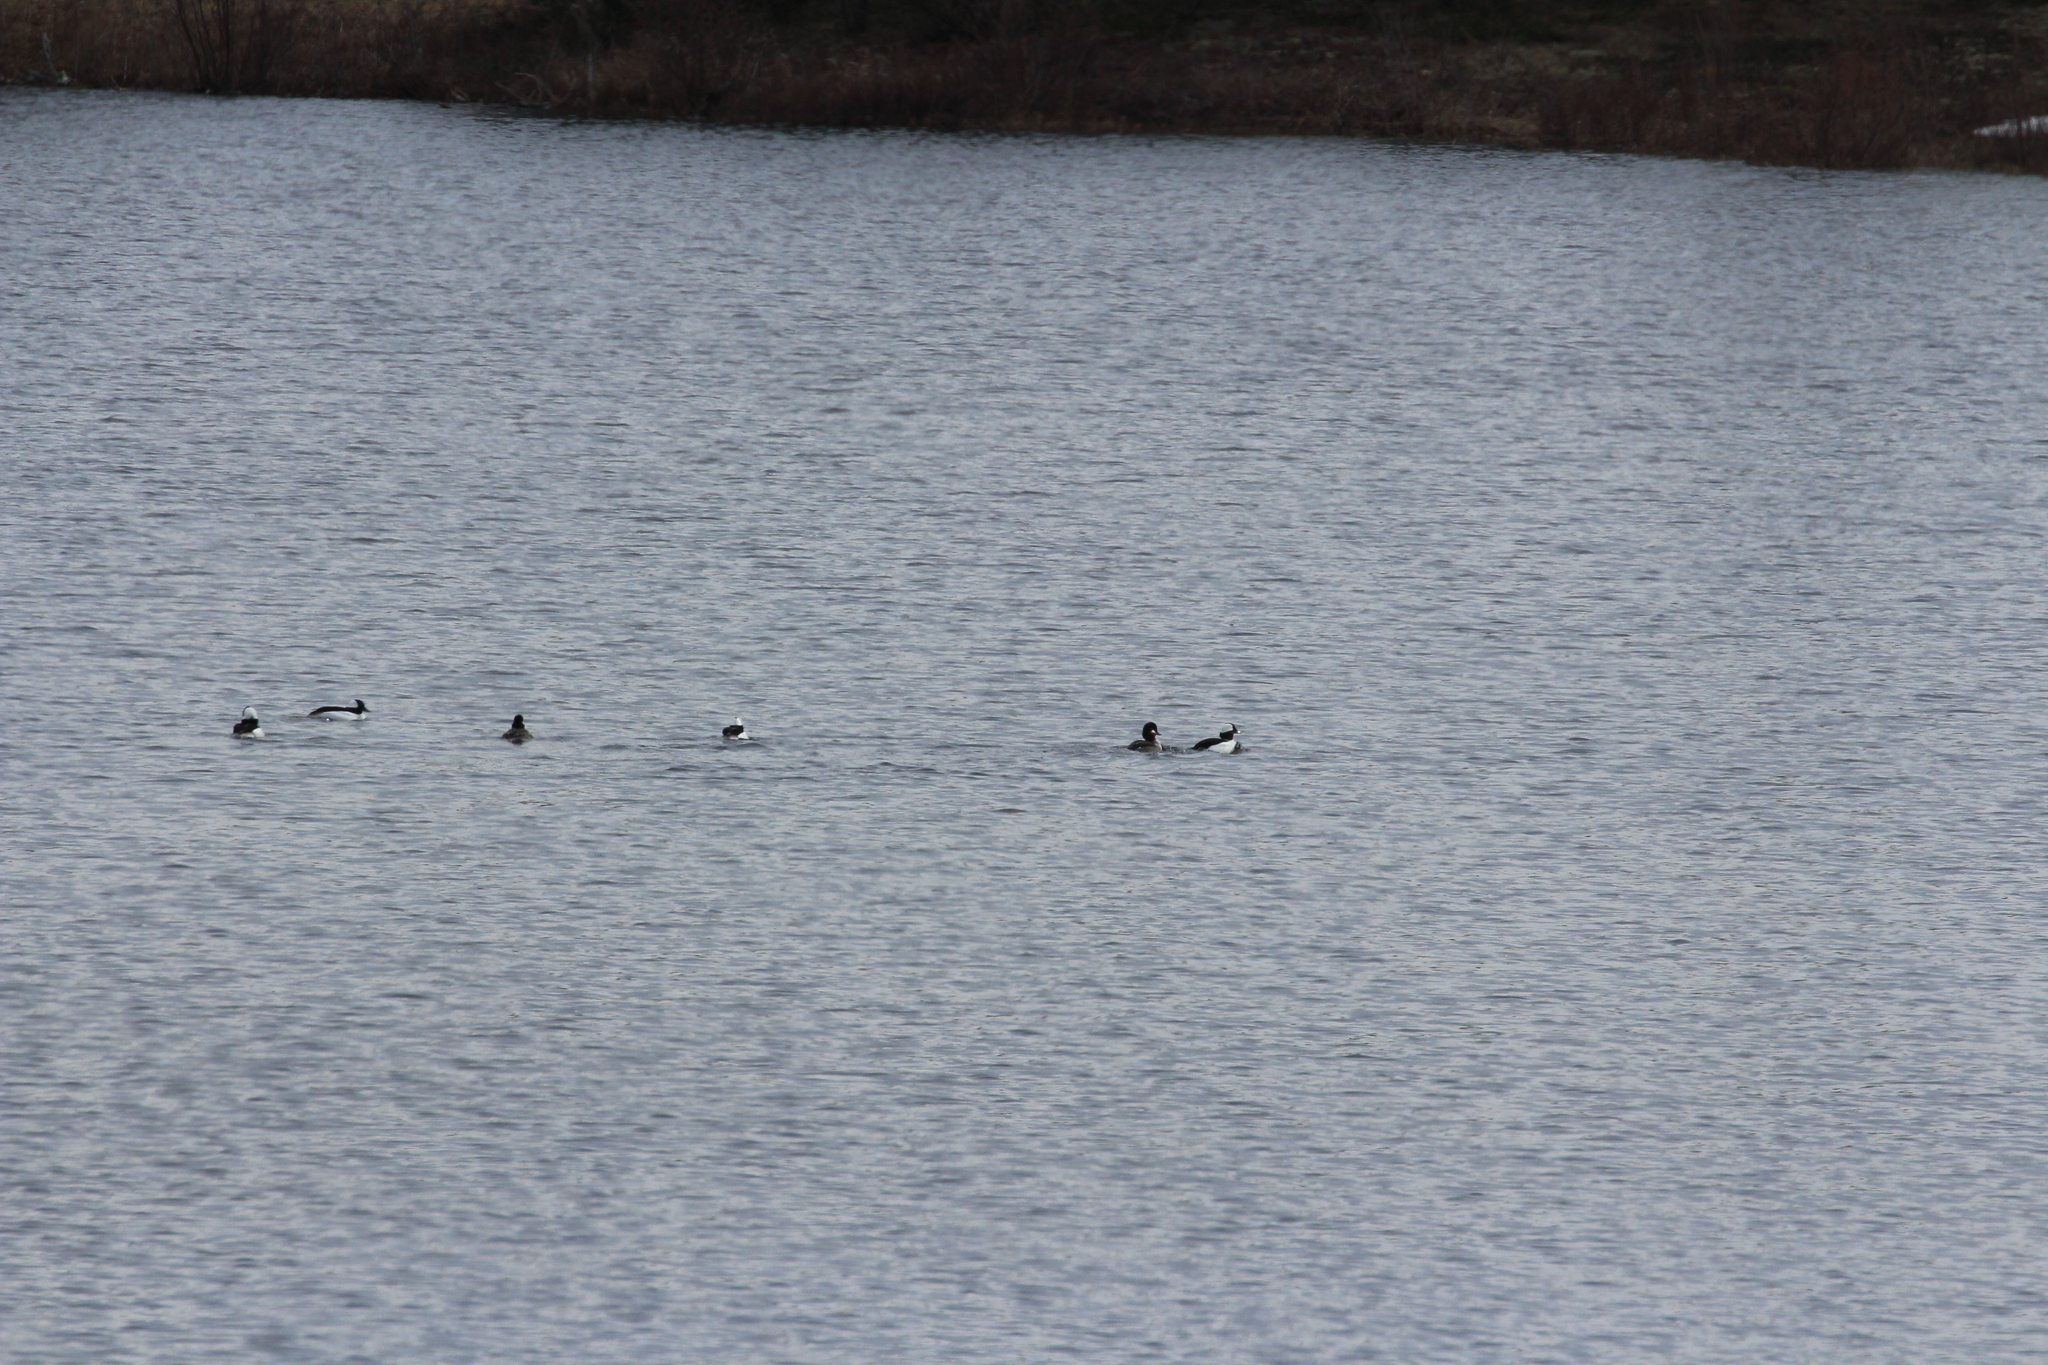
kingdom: Animalia
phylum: Chordata
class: Aves
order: Anseriformes
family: Anatidae
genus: Bucephala
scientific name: Bucephala albeola
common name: Bufflehead
